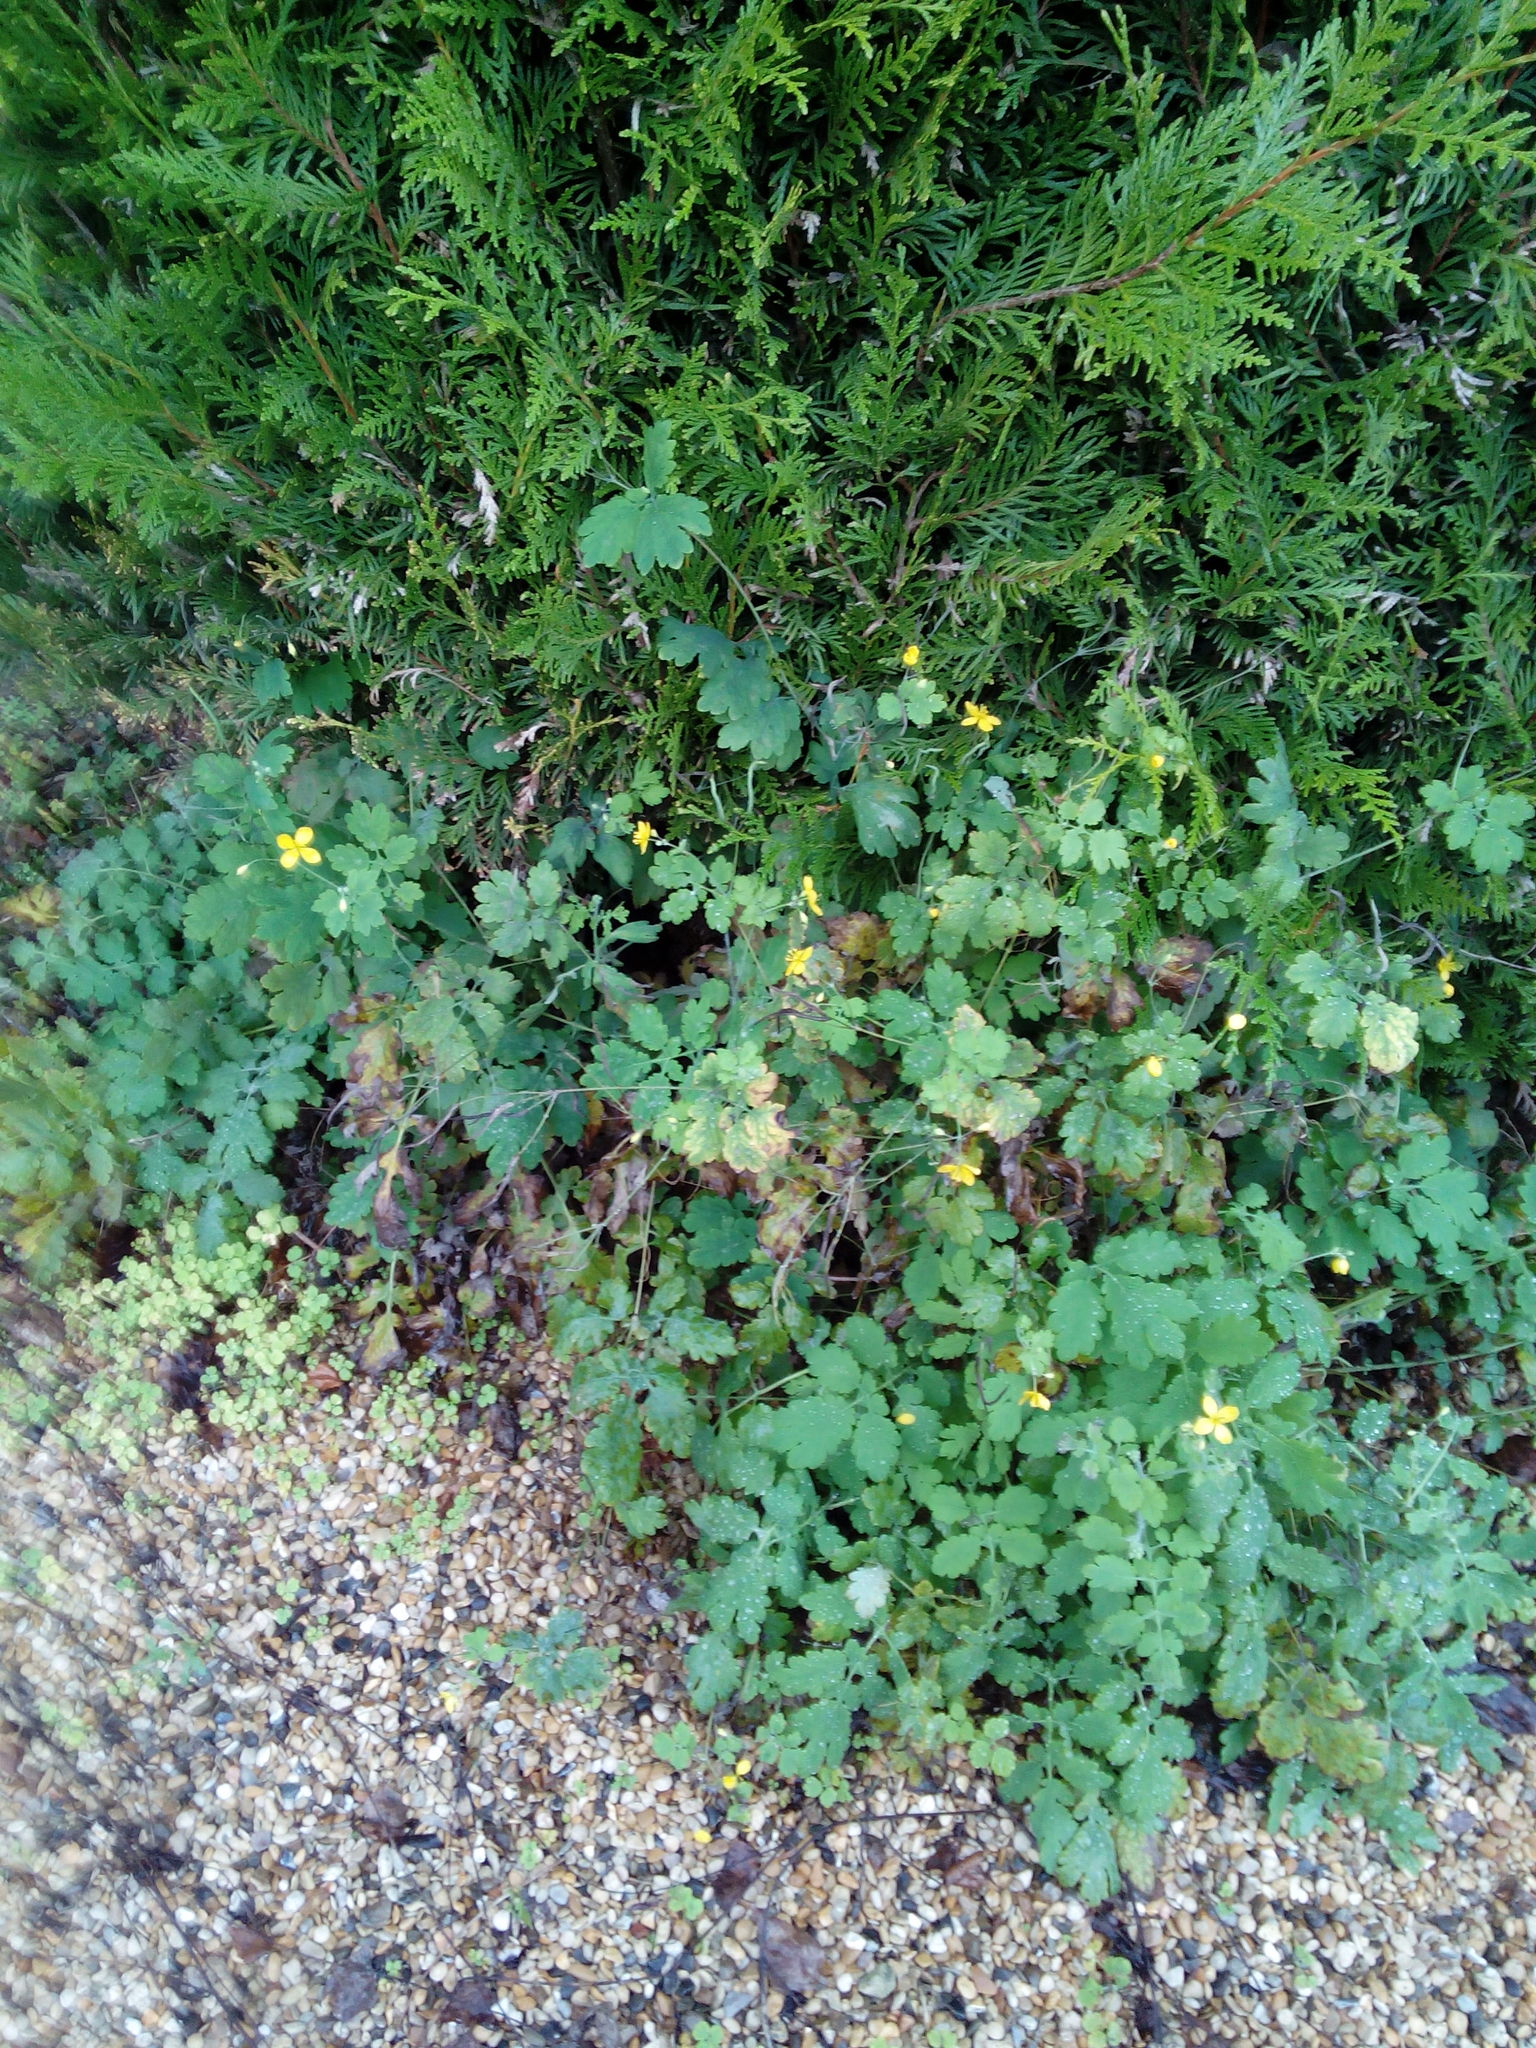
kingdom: Plantae
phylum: Tracheophyta
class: Magnoliopsida
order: Ranunculales
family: Papaveraceae
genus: Chelidonium
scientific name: Chelidonium majus
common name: Greater celandine
